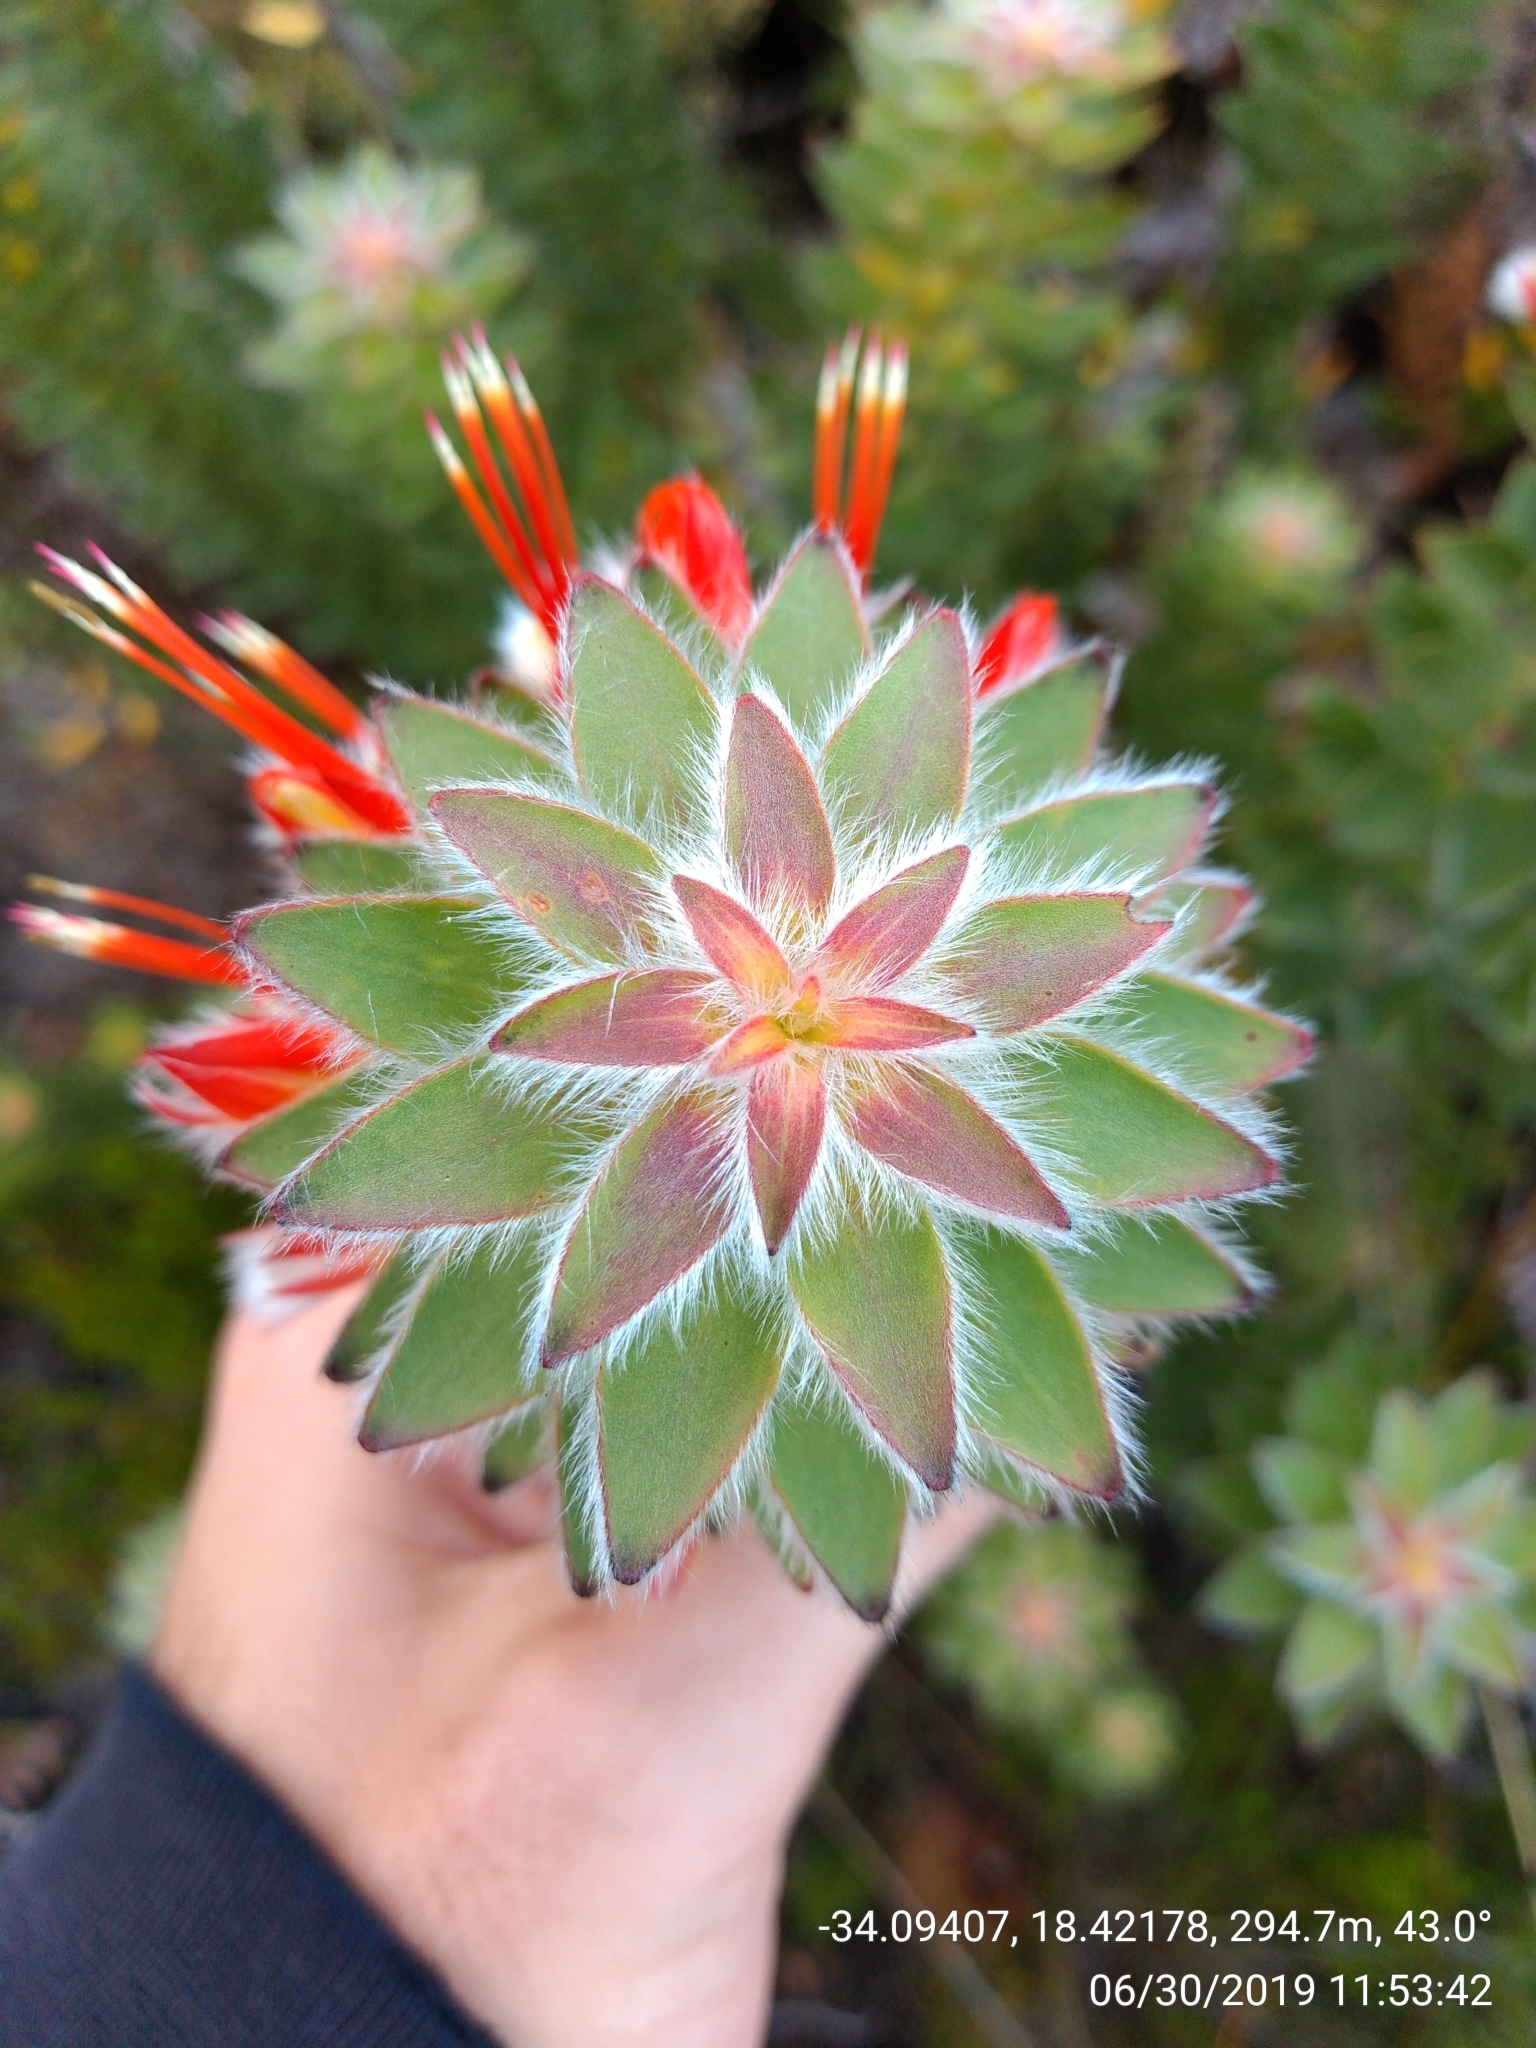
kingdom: Plantae
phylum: Tracheophyta
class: Magnoliopsida
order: Proteales
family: Proteaceae
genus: Mimetes
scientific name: Mimetes hirtus
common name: Marsh pagoda
